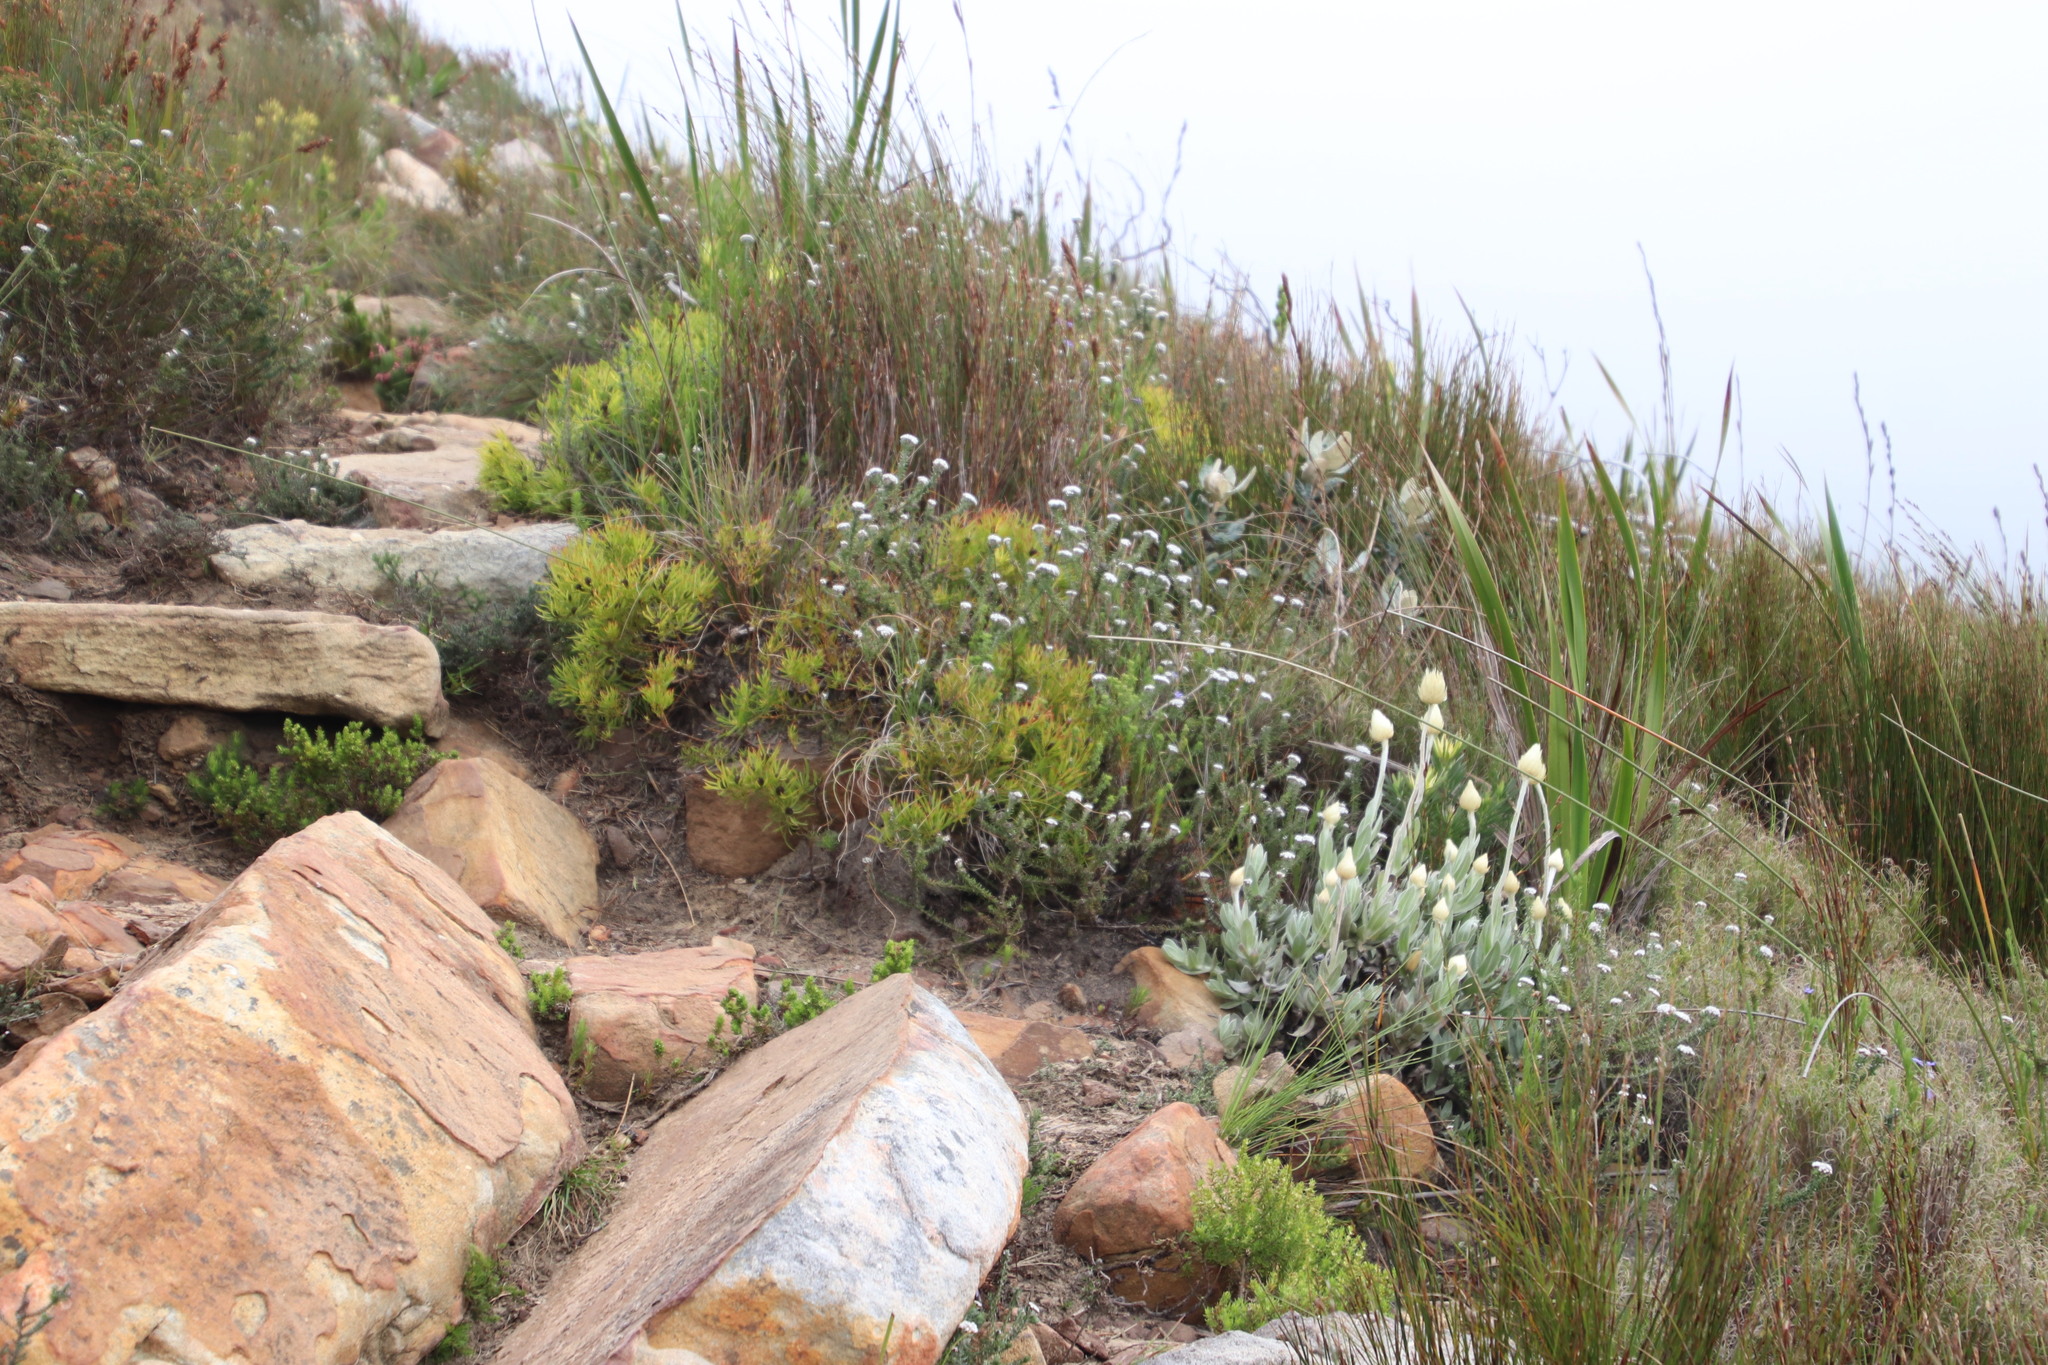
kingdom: Plantae
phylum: Tracheophyta
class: Magnoliopsida
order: Proteales
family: Proteaceae
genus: Leucadendron
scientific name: Leucadendron salignum
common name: Common sunshine conebush
